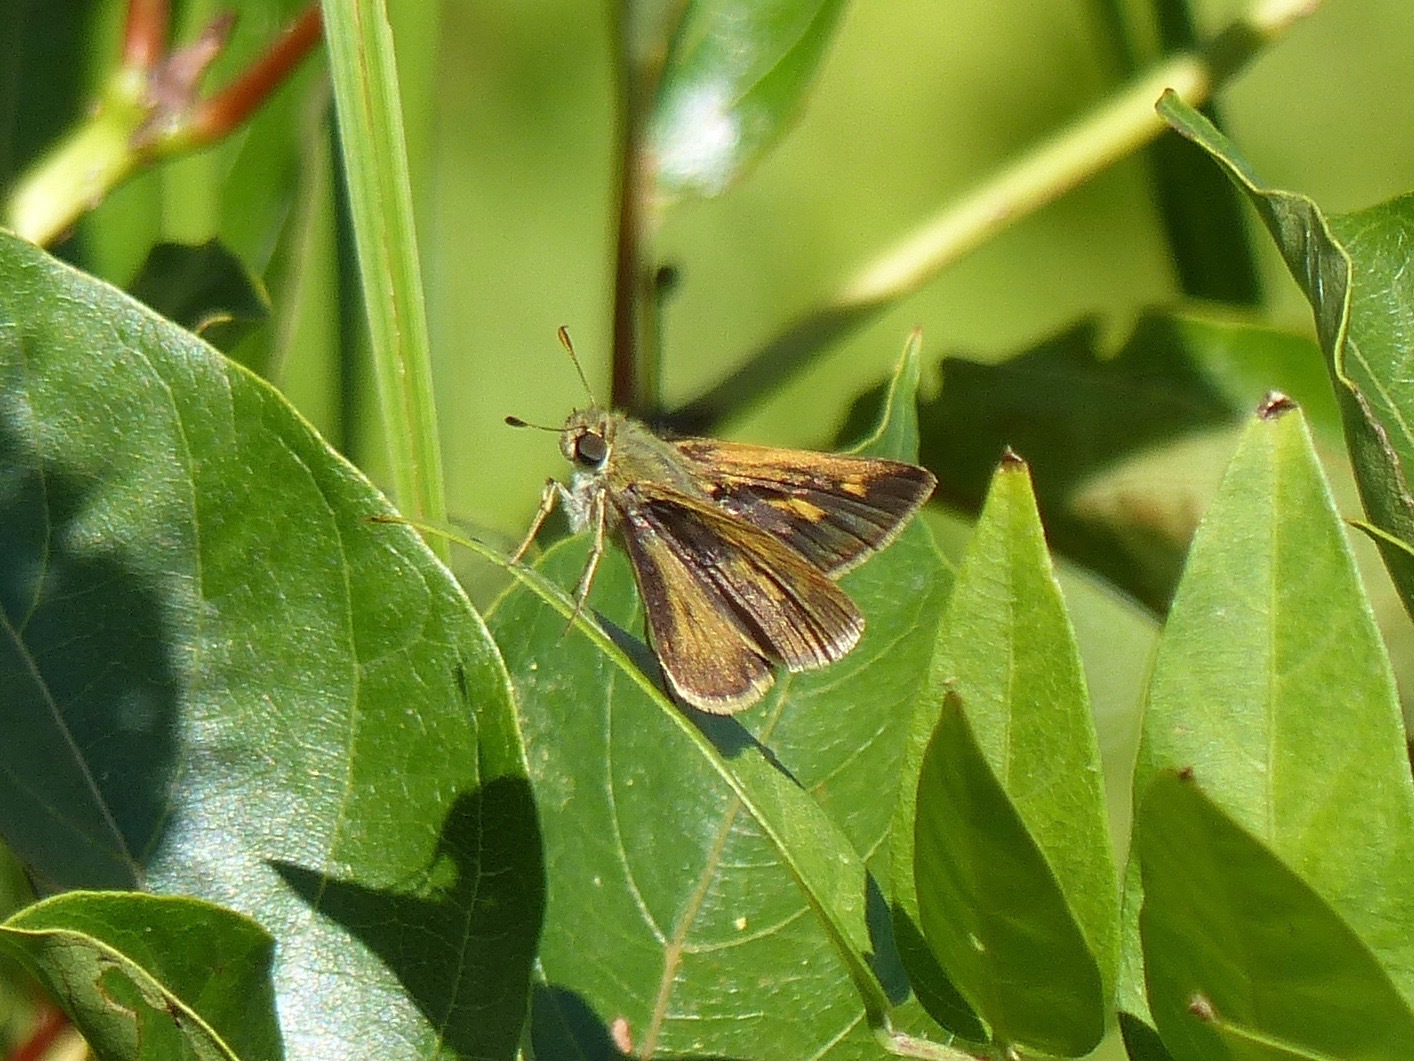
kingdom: Animalia
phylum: Arthropoda
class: Insecta
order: Lepidoptera
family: Hesperiidae
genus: Polites
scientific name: Polites egeremet
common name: Northern broken-dash
